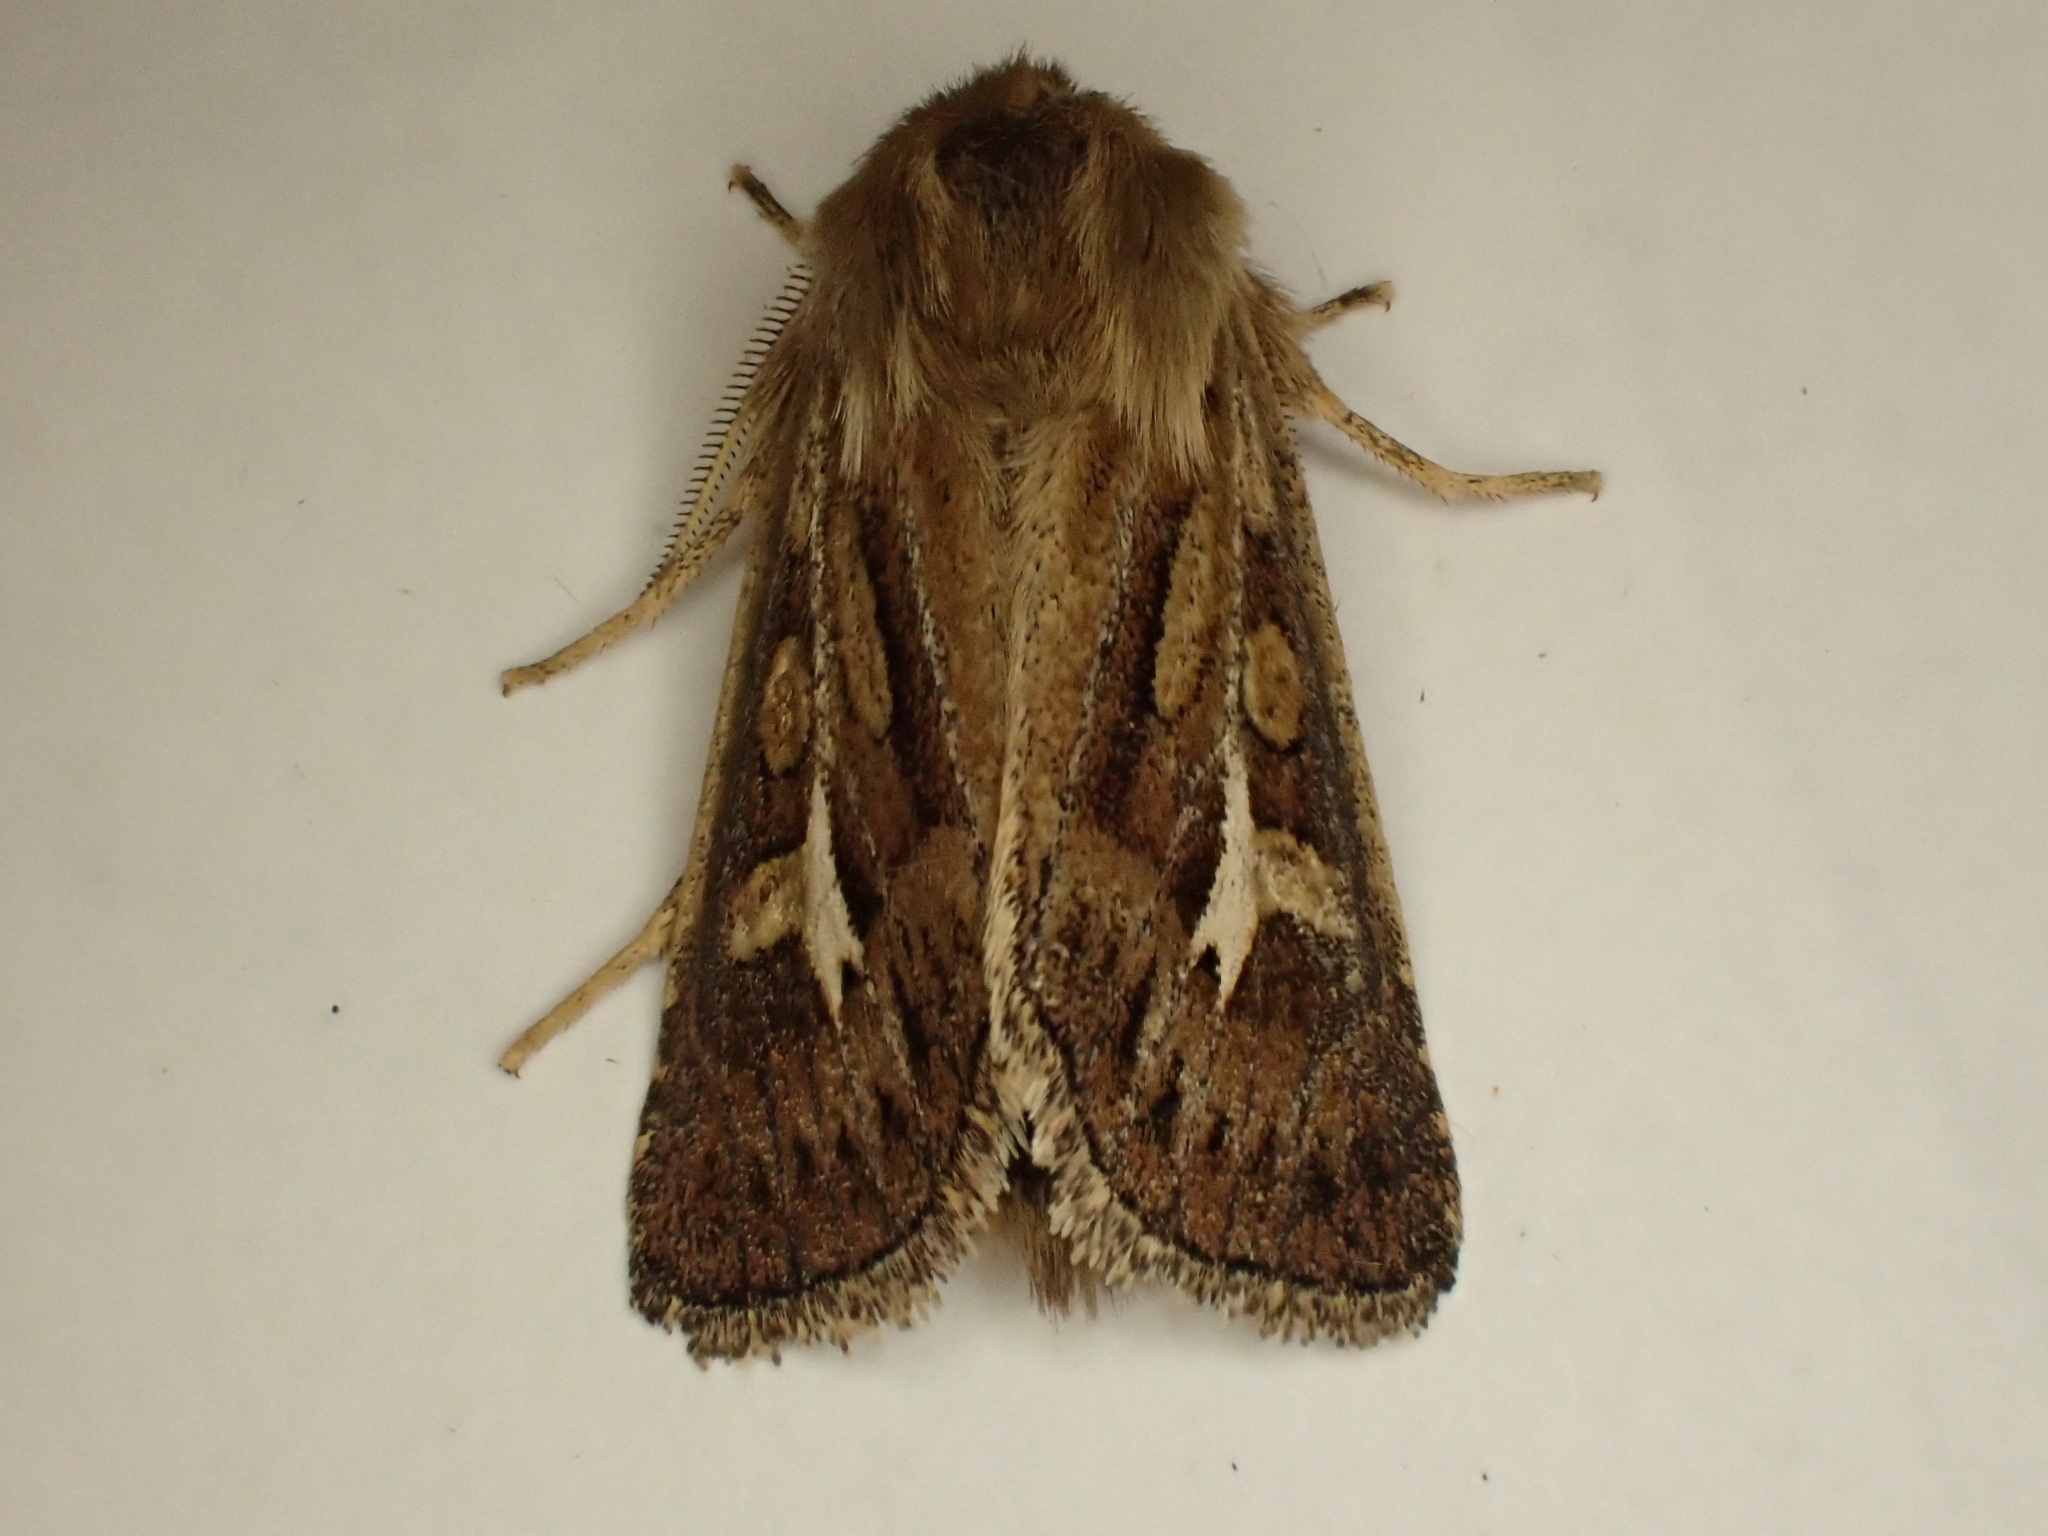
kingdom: Animalia
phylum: Arthropoda
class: Insecta
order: Lepidoptera
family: Noctuidae
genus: Cerapteryx
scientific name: Cerapteryx graminis
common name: Antler moth
